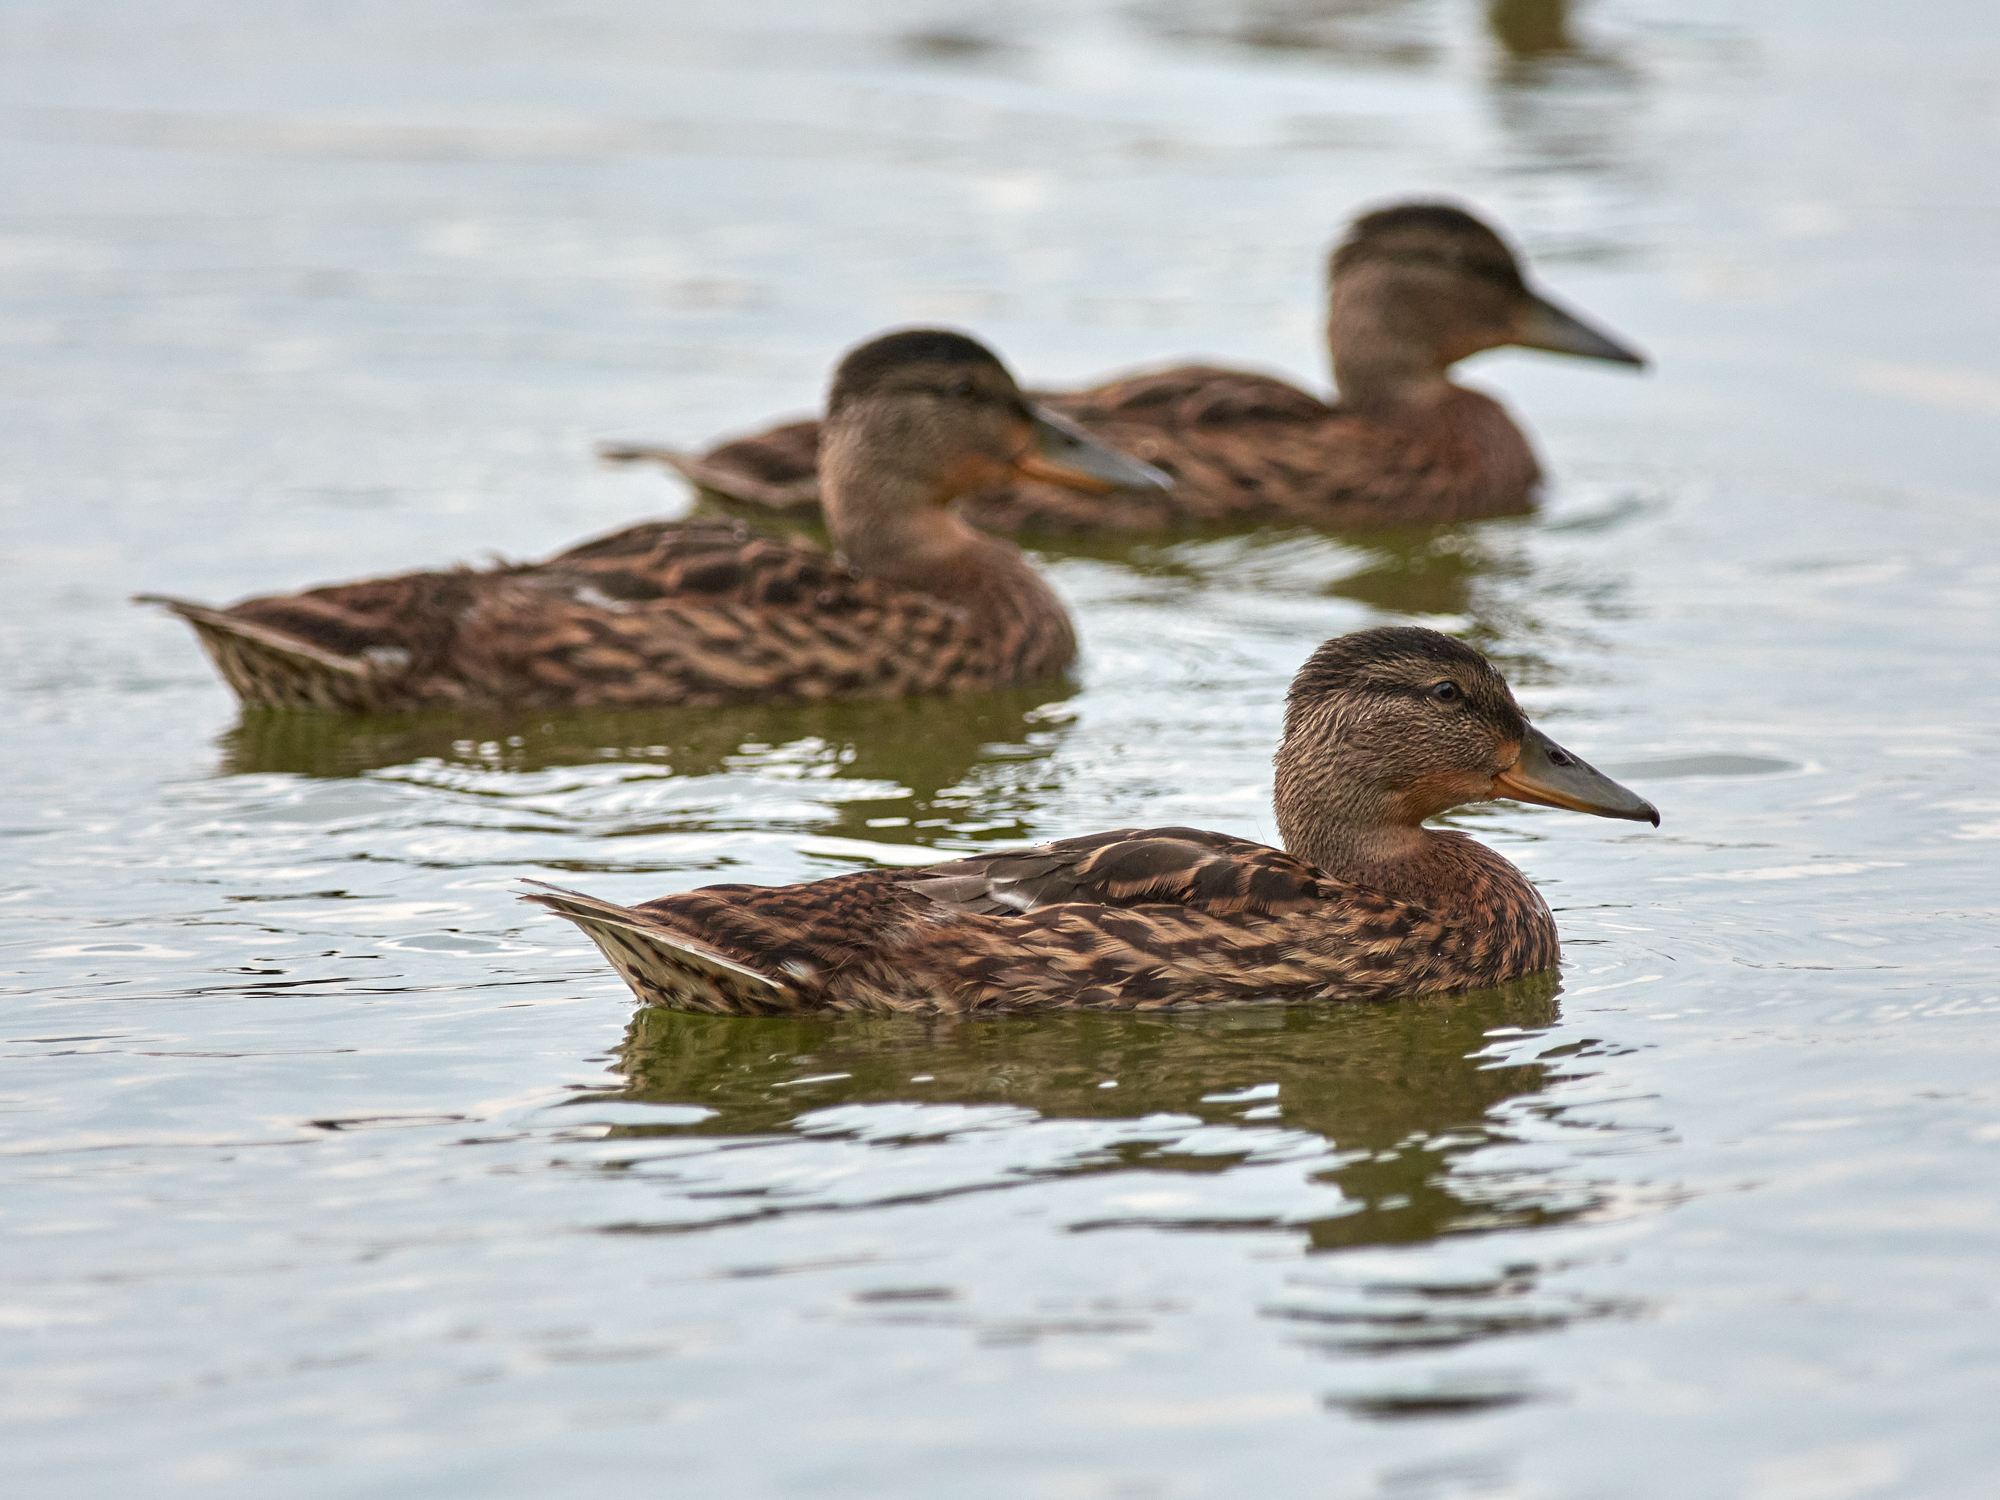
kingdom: Animalia
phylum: Chordata
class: Aves
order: Anseriformes
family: Anatidae
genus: Anas
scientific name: Anas platyrhynchos
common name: Mallard
